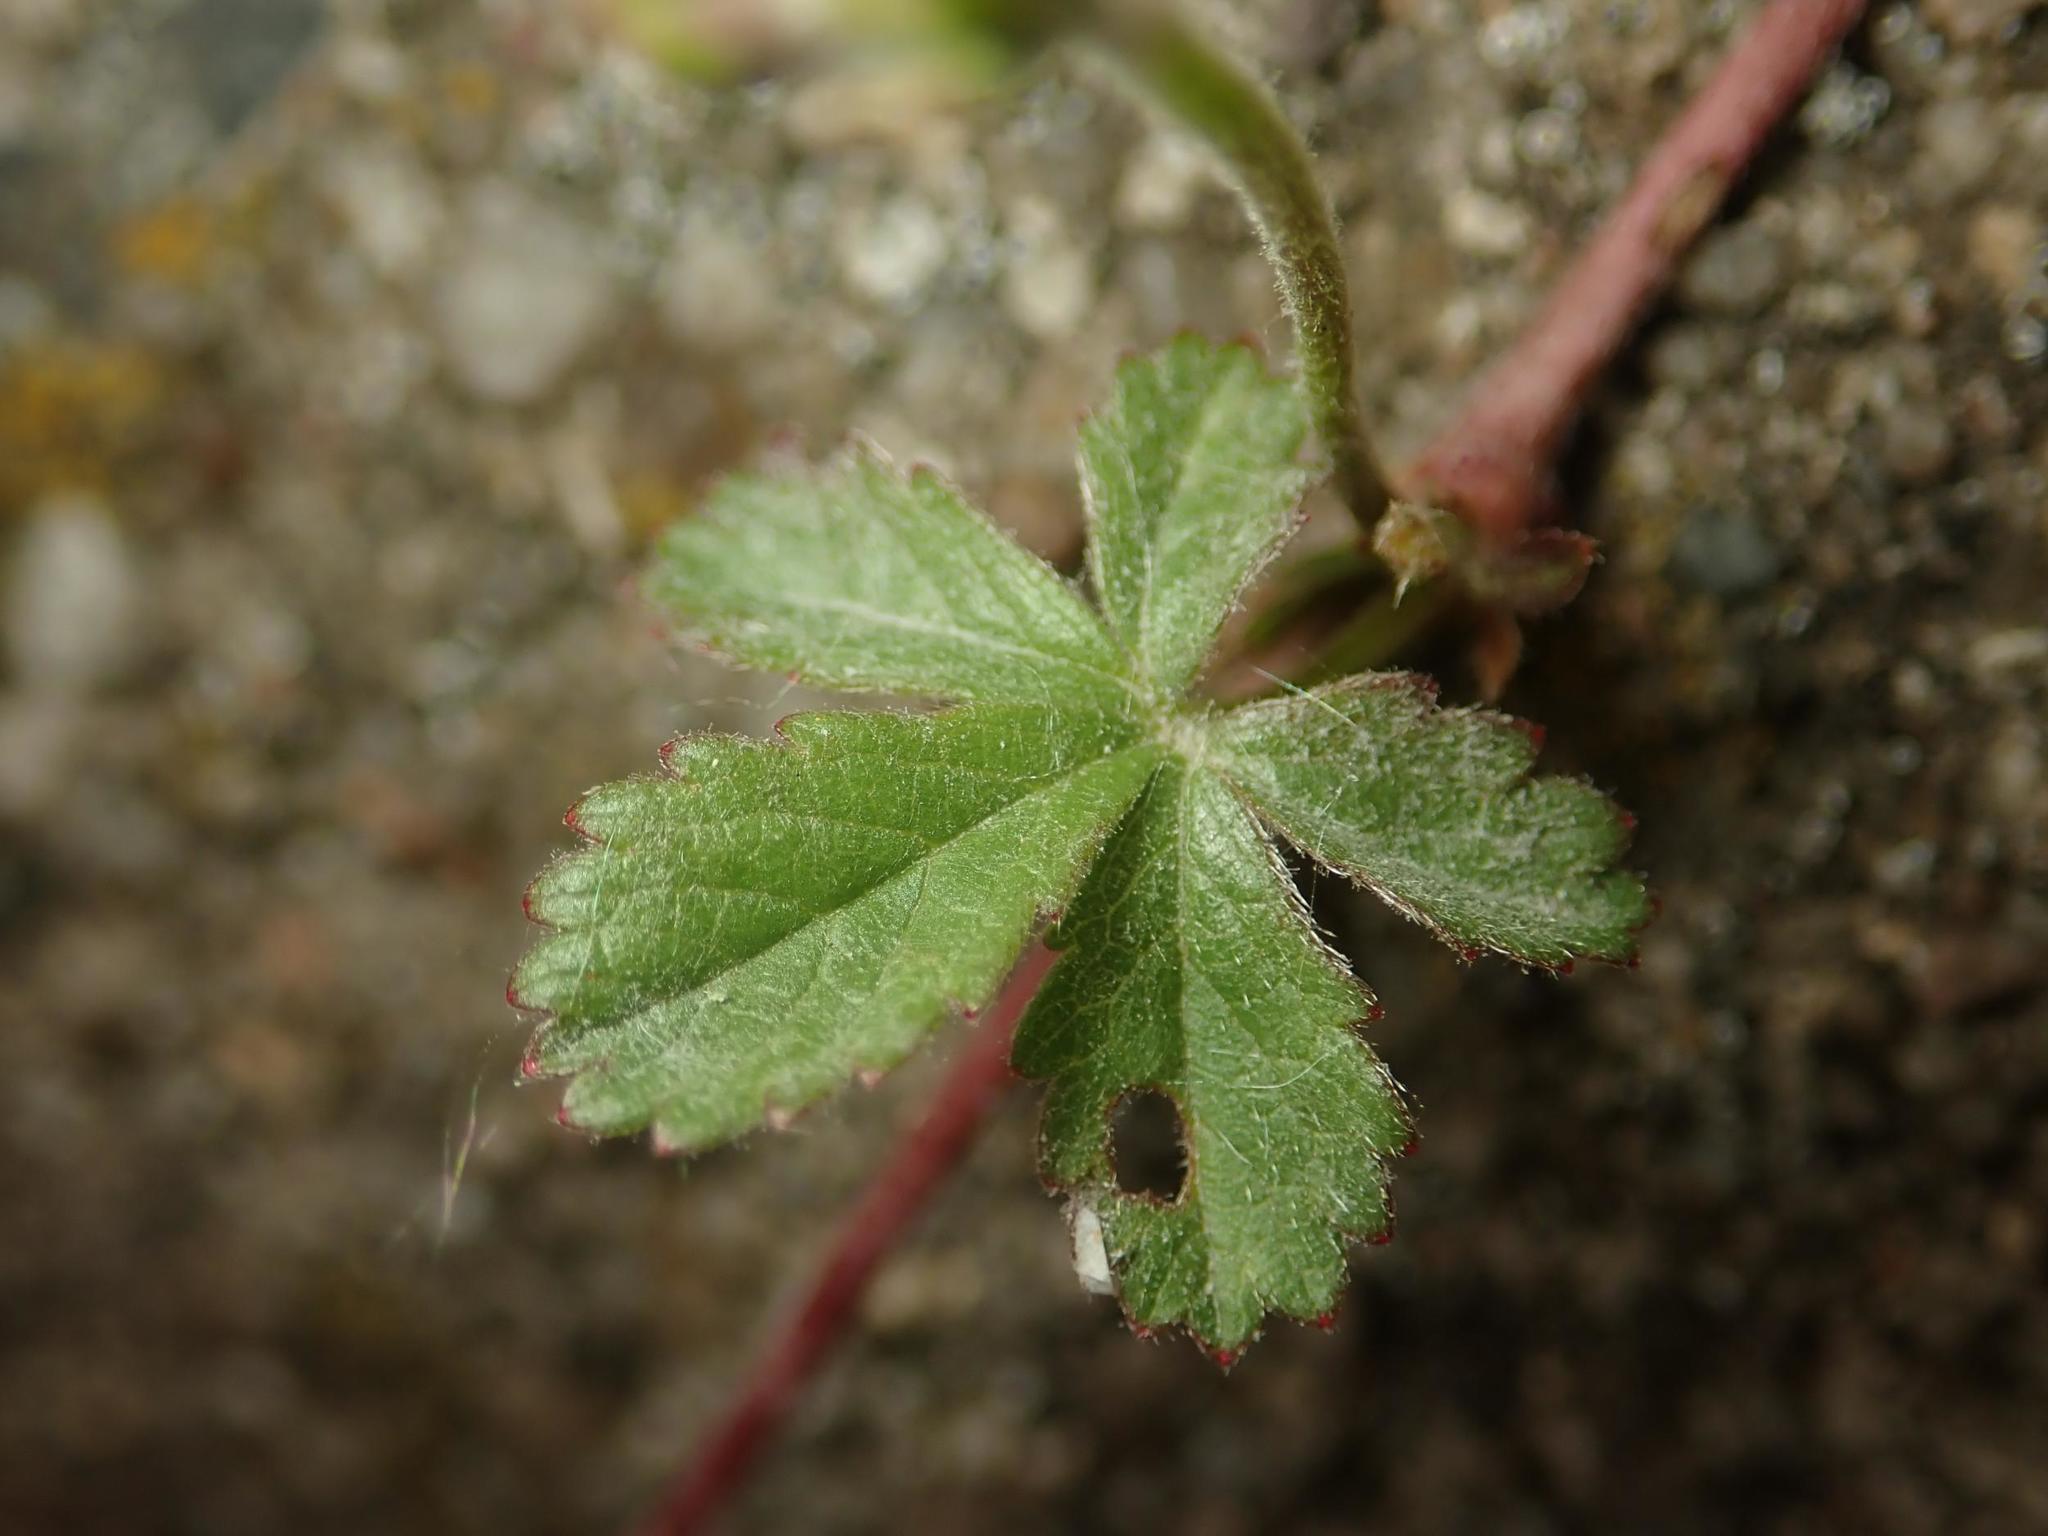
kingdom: Plantae
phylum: Tracheophyta
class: Magnoliopsida
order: Rosales
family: Rosaceae
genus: Potentilla
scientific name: Potentilla reptans
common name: Creeping cinquefoil
